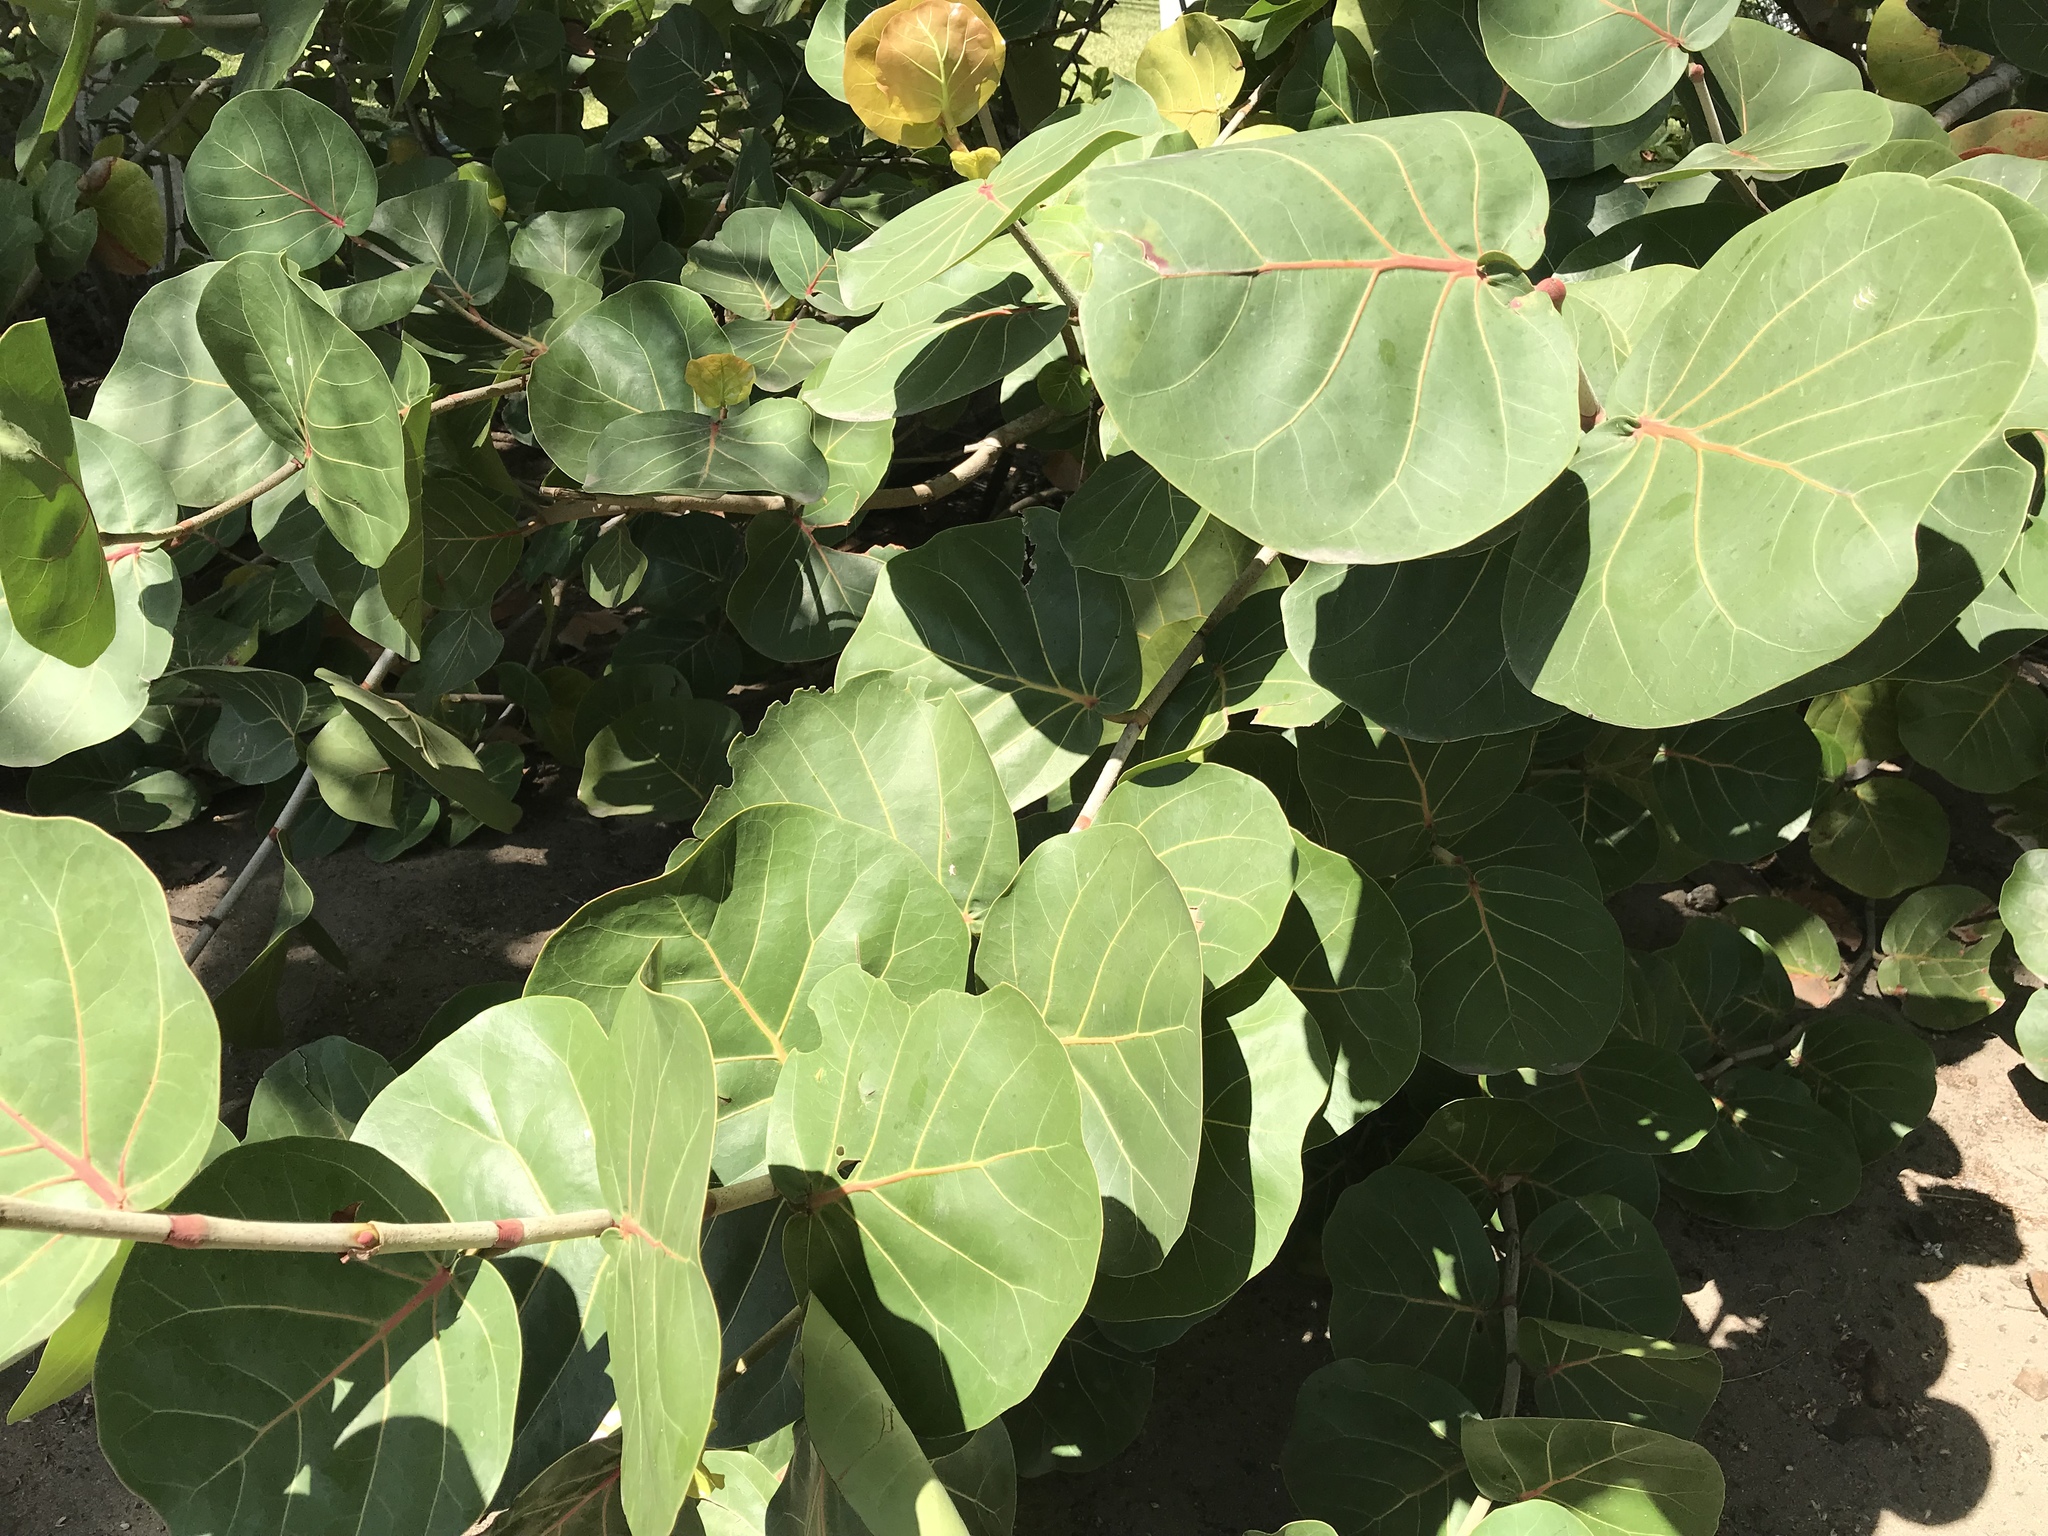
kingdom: Plantae
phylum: Tracheophyta
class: Magnoliopsida
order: Caryophyllales
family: Polygonaceae
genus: Coccoloba
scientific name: Coccoloba uvifera
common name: Seagrape
